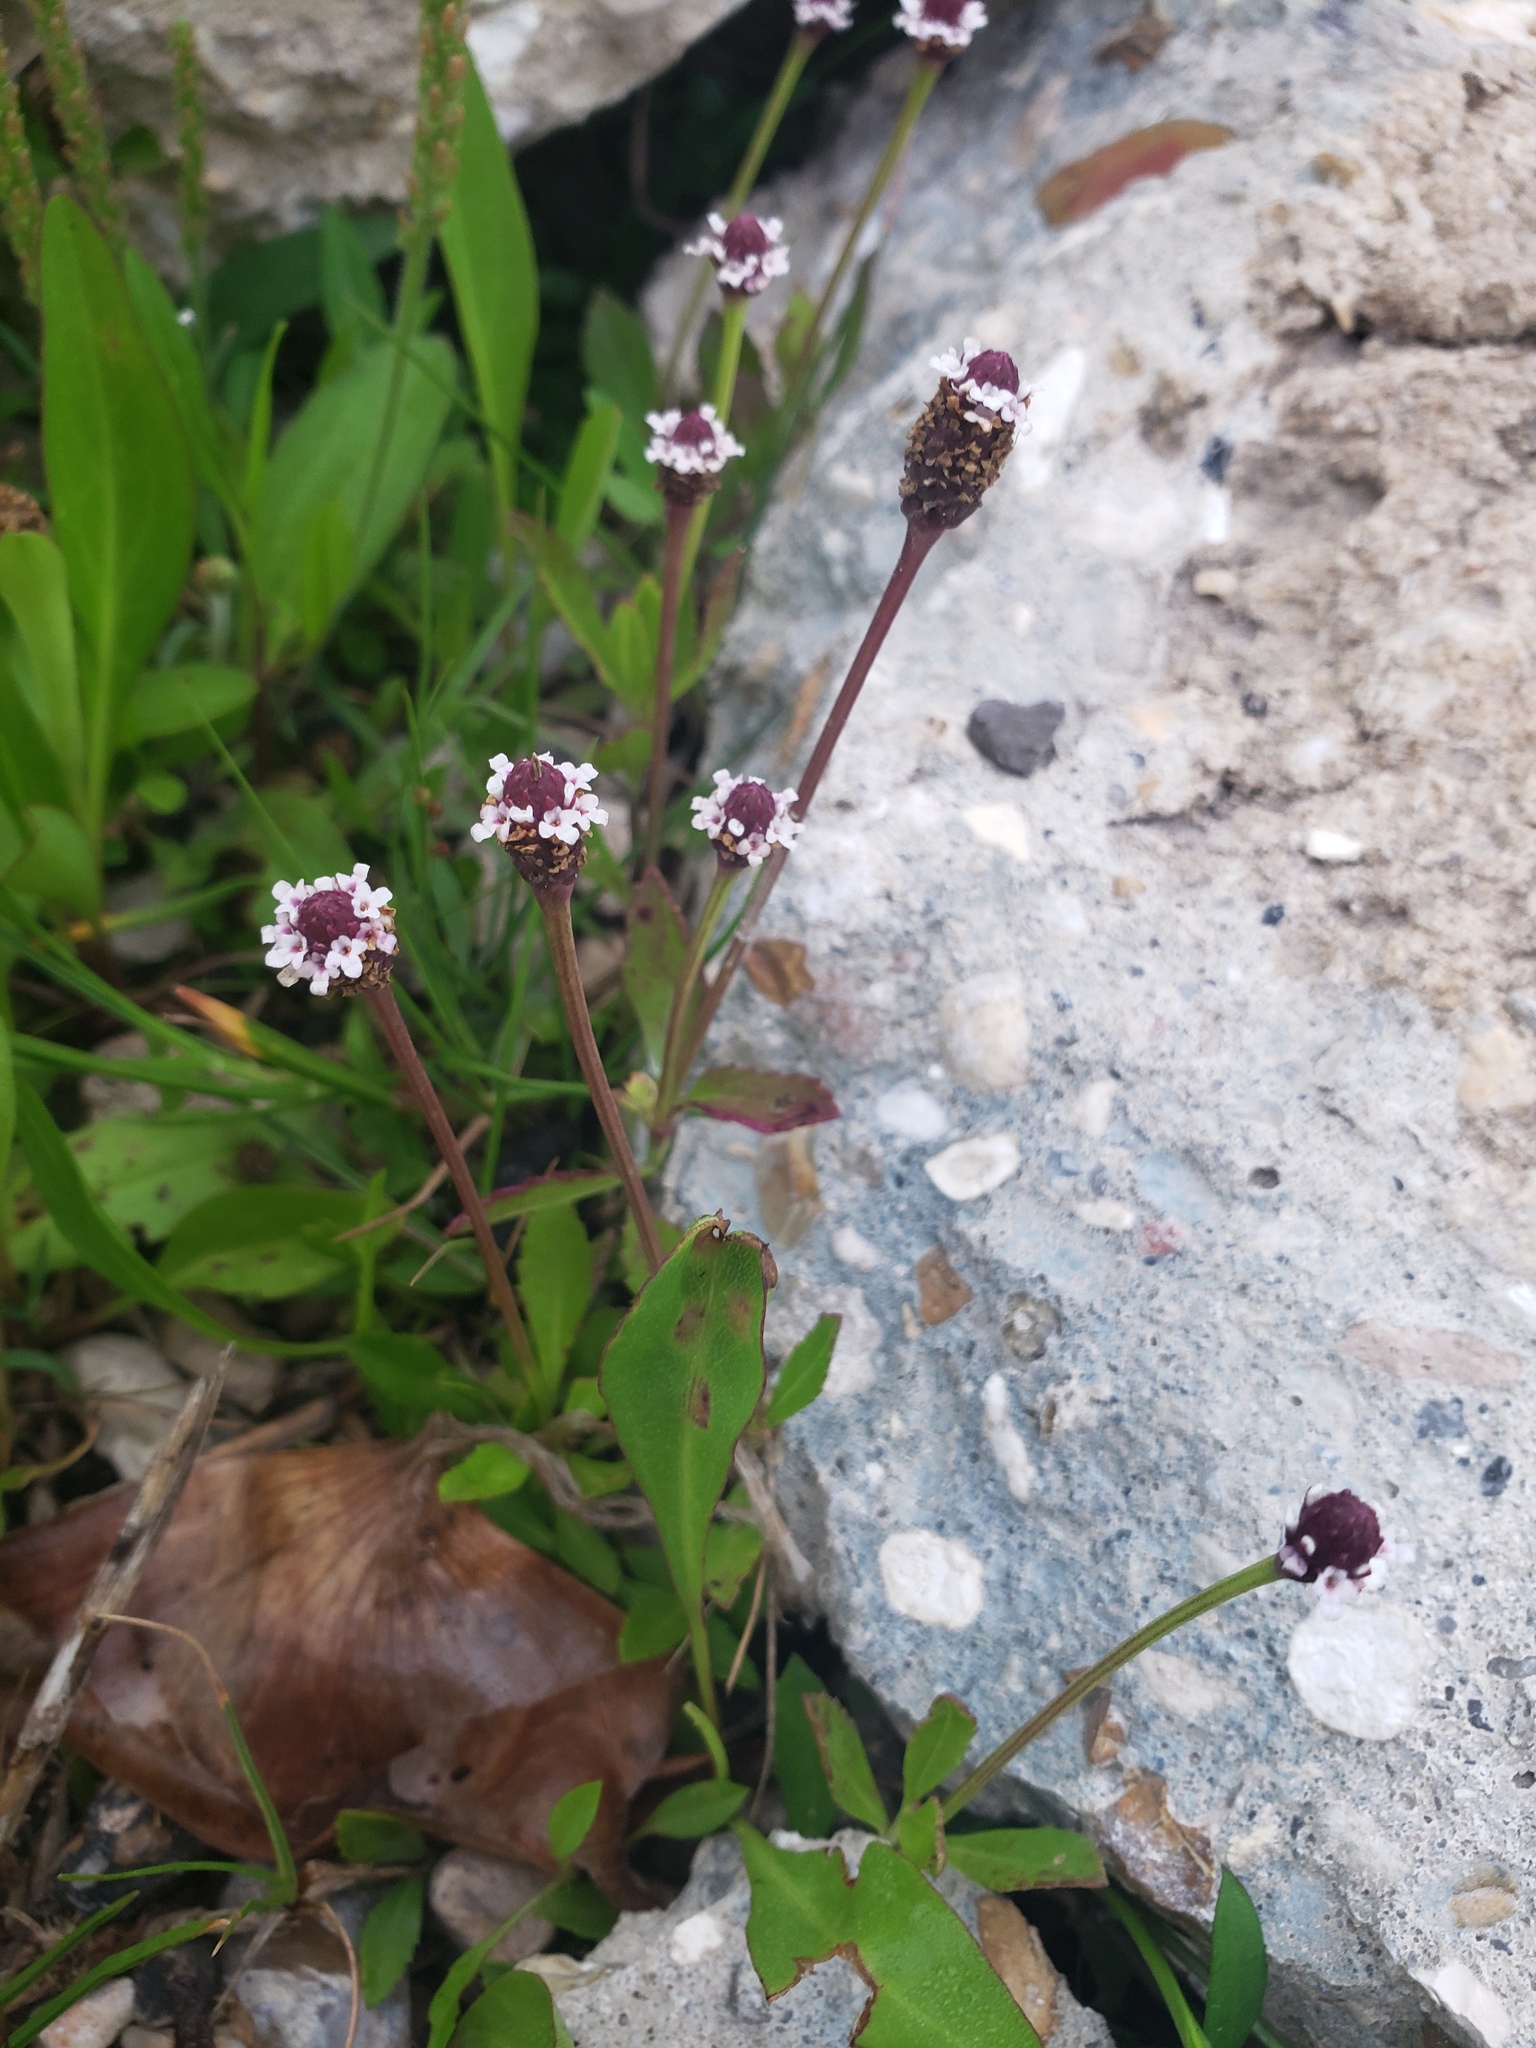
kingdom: Plantae
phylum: Tracheophyta
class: Magnoliopsida
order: Lamiales
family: Verbenaceae
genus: Phyla
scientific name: Phyla nodiflora
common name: Frogfruit
